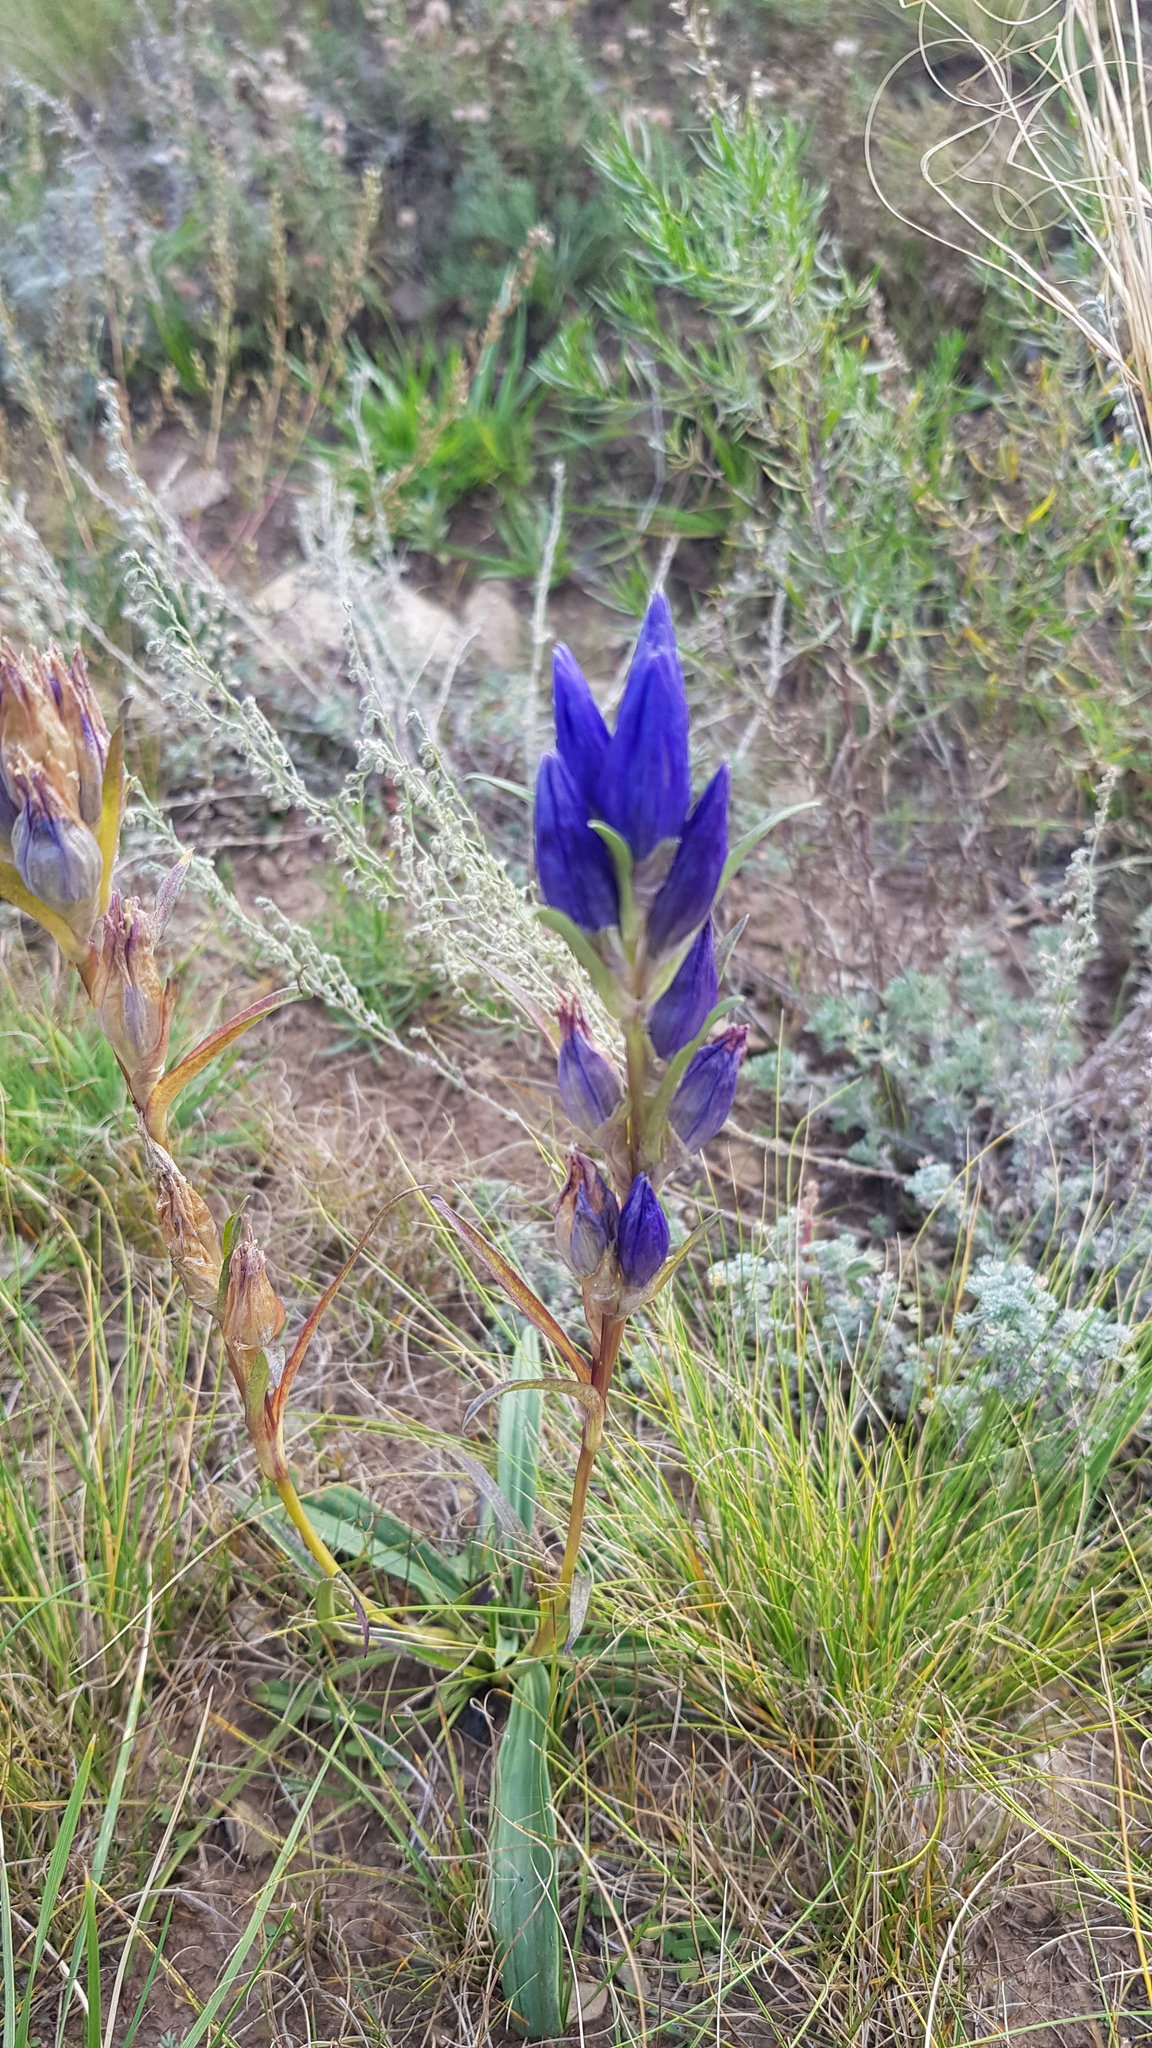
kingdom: Plantae
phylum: Tracheophyta
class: Magnoliopsida
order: Gentianales
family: Gentianaceae
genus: Gentiana
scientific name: Gentiana decumbens
